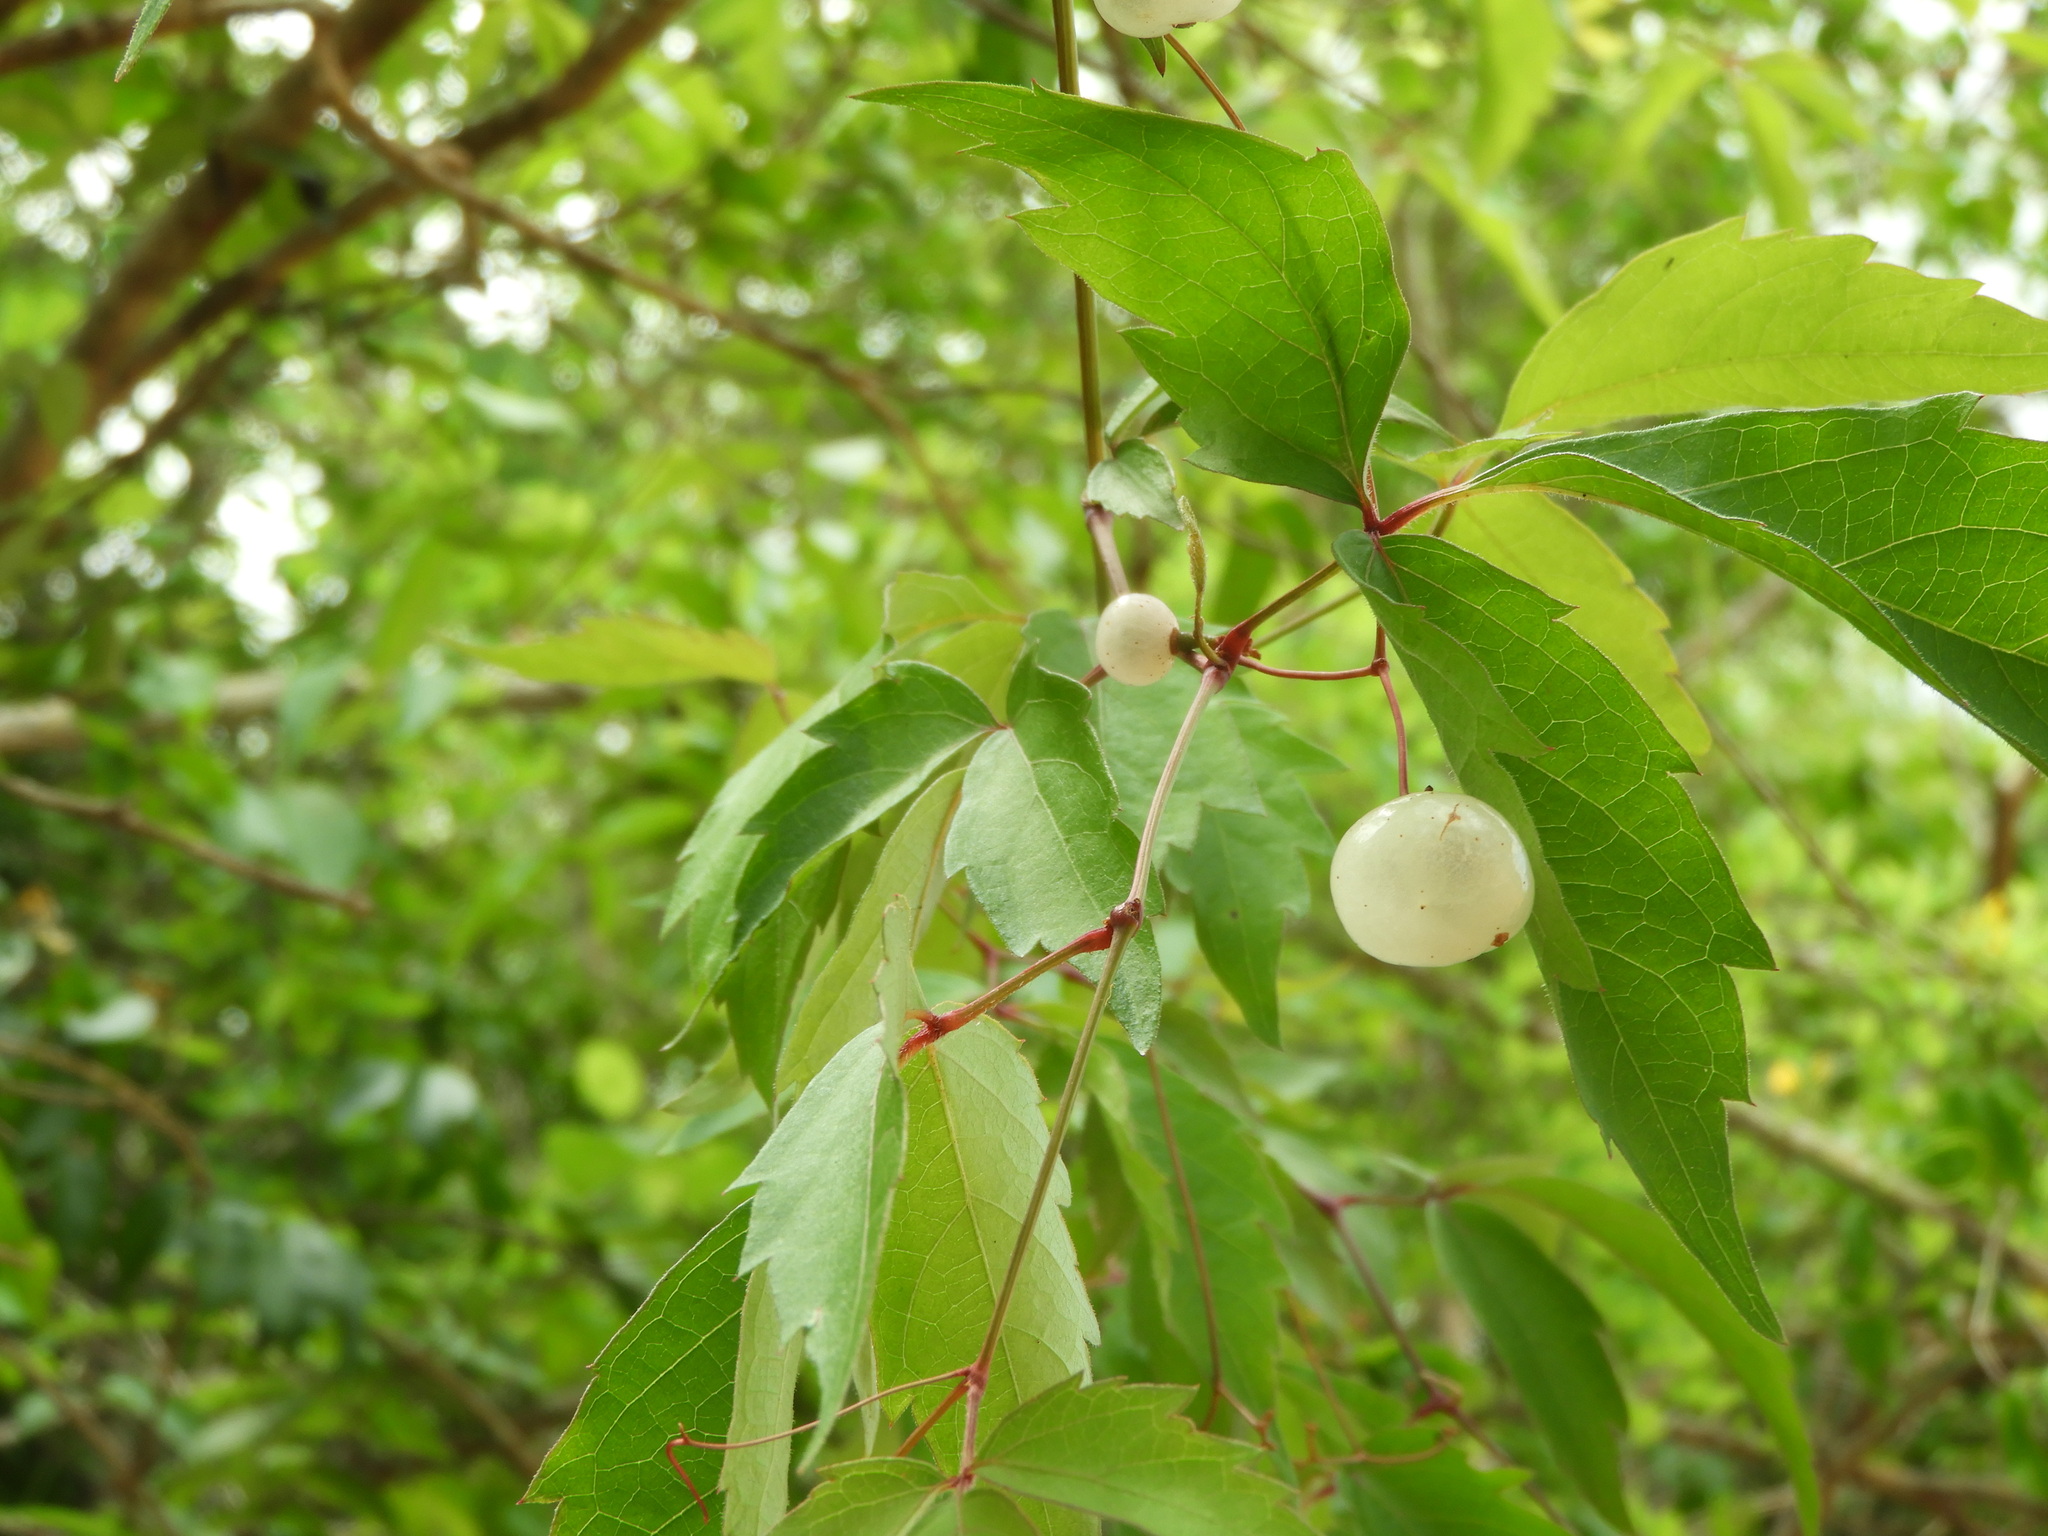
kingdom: Plantae
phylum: Tracheophyta
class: Magnoliopsida
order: Vitales
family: Vitaceae
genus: Ampelopsis
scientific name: Ampelopsis denudata
